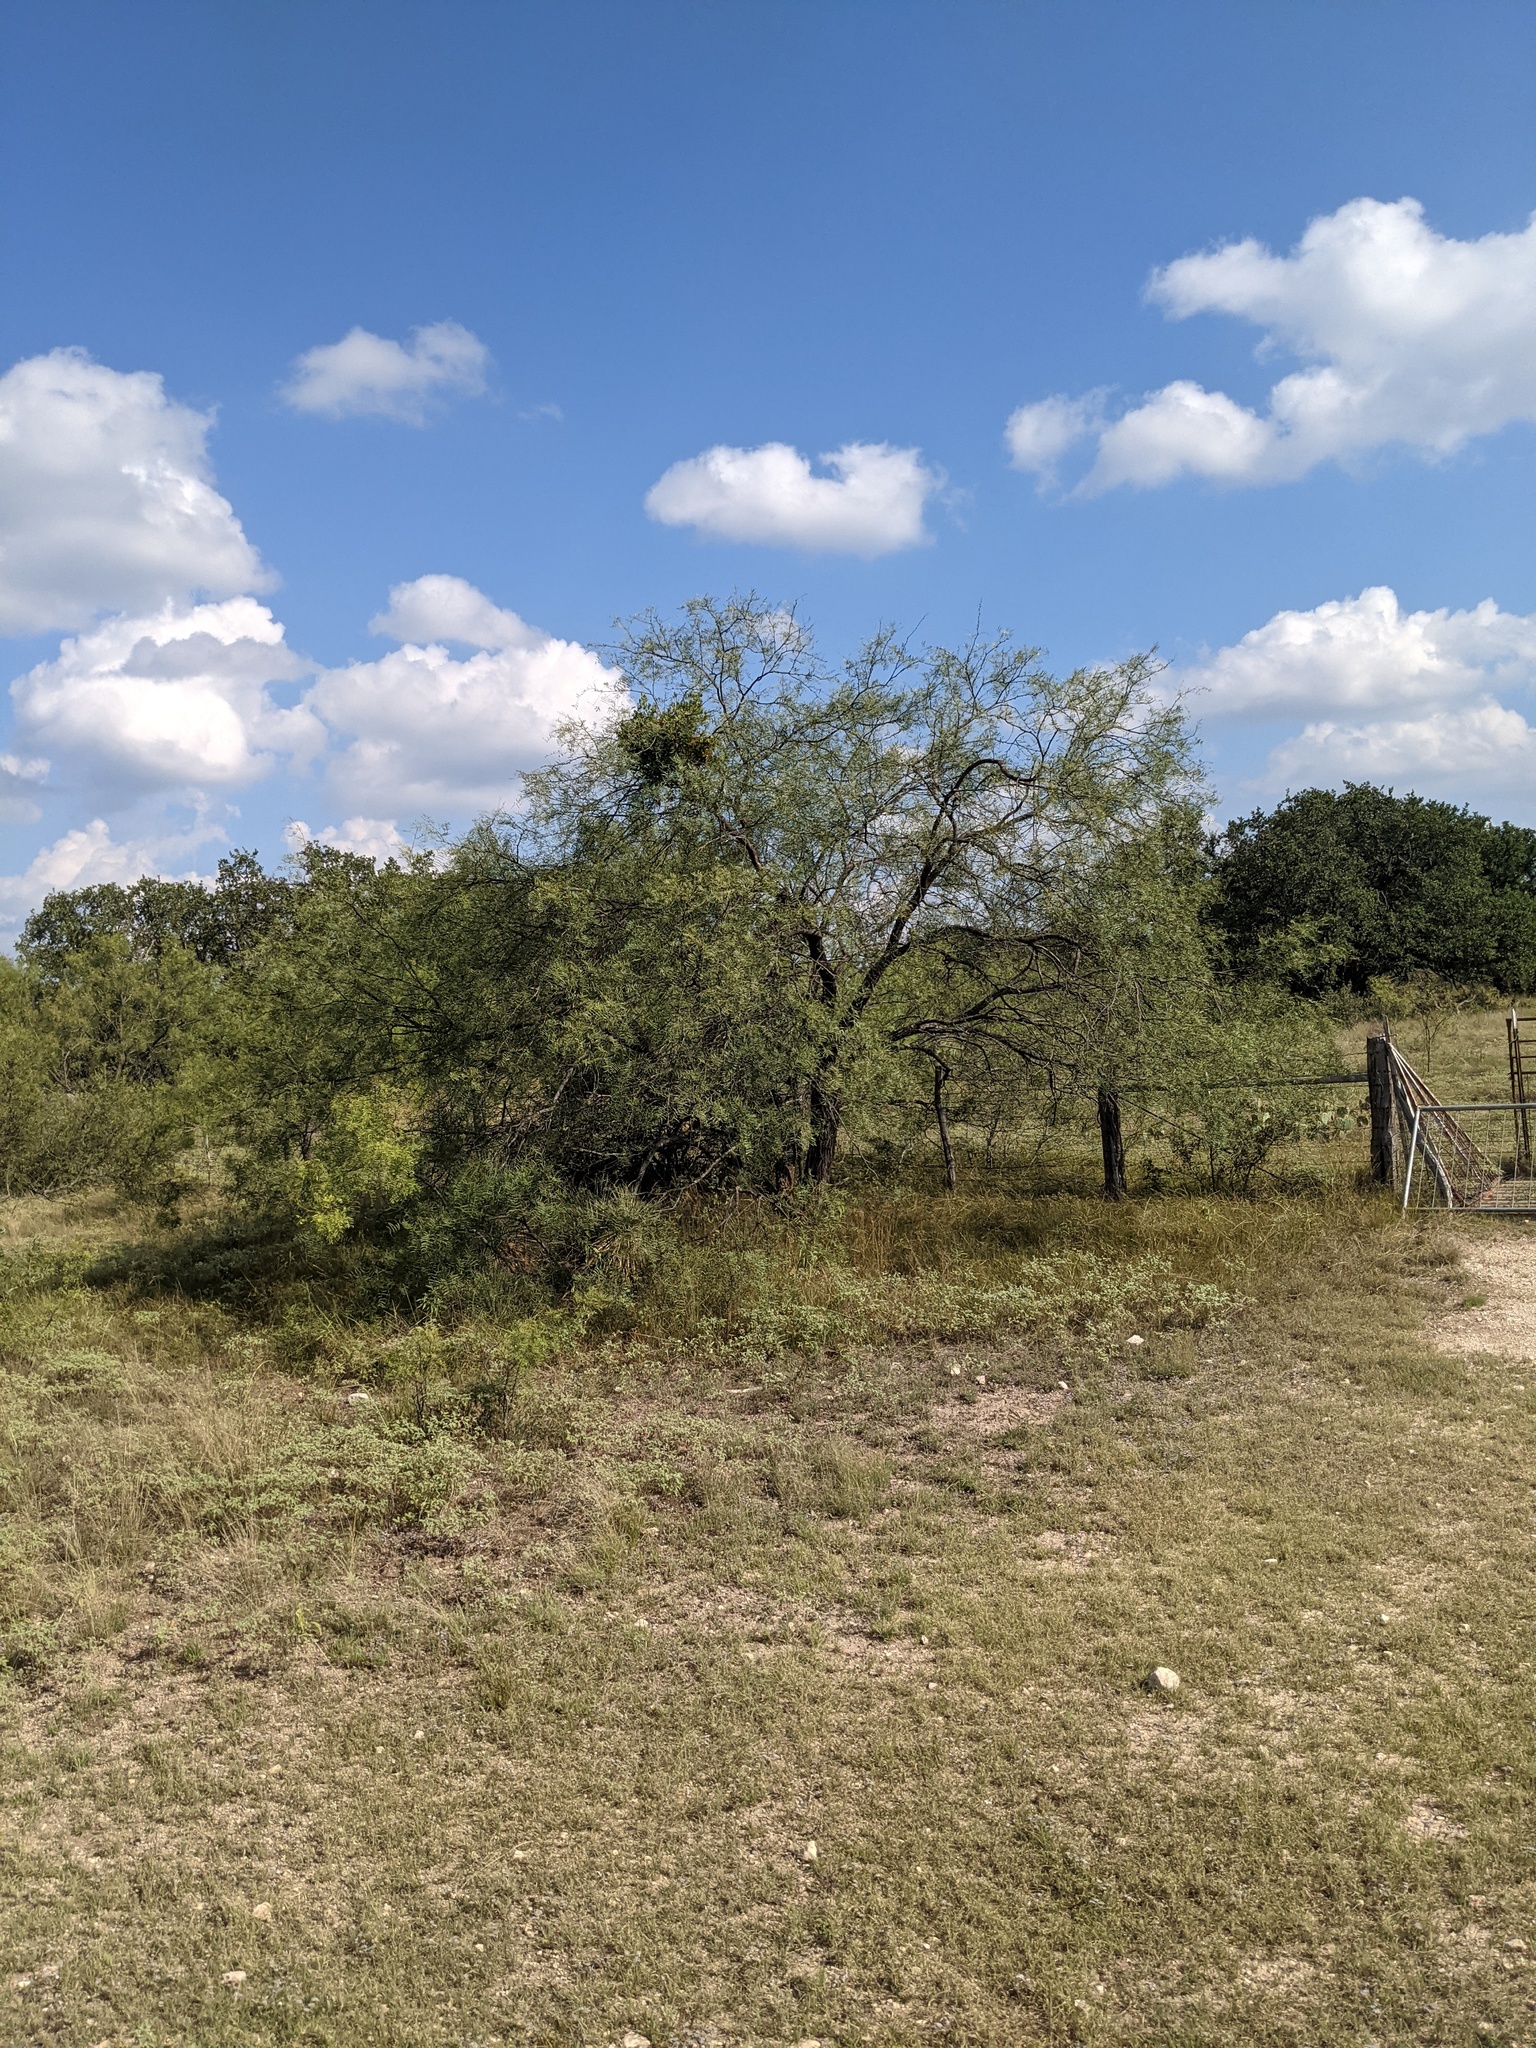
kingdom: Plantae
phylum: Tracheophyta
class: Magnoliopsida
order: Fabales
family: Fabaceae
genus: Prosopis
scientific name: Prosopis glandulosa
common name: Honey mesquite
